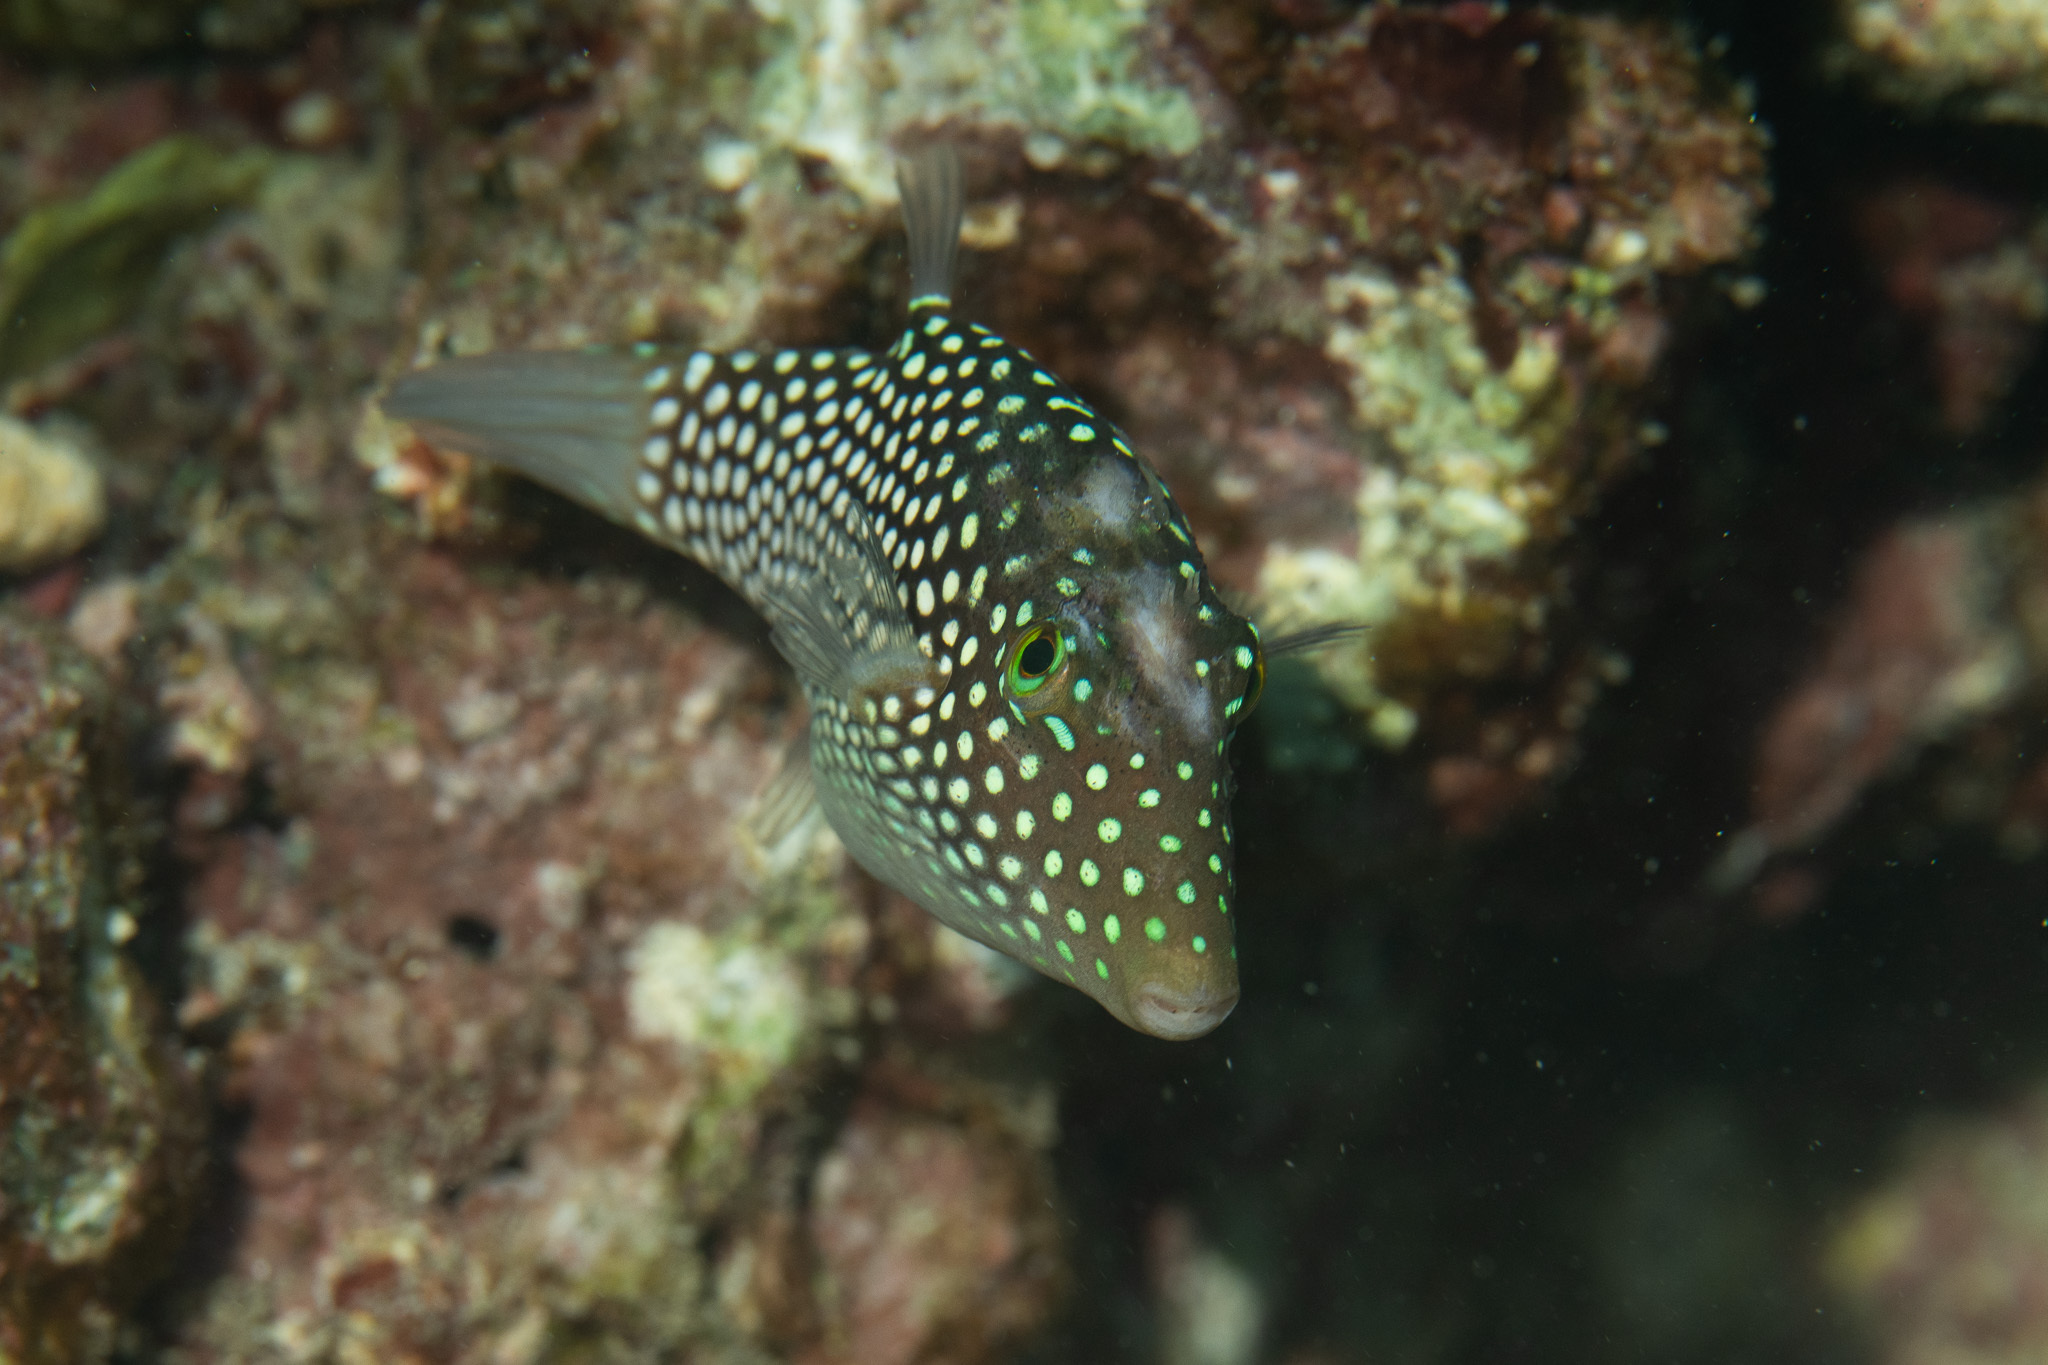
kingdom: Animalia
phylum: Chordata
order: Tetraodontiformes
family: Tetraodontidae
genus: Canthigaster
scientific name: Canthigaster jactator
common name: Hawaiian whitespotted toby
